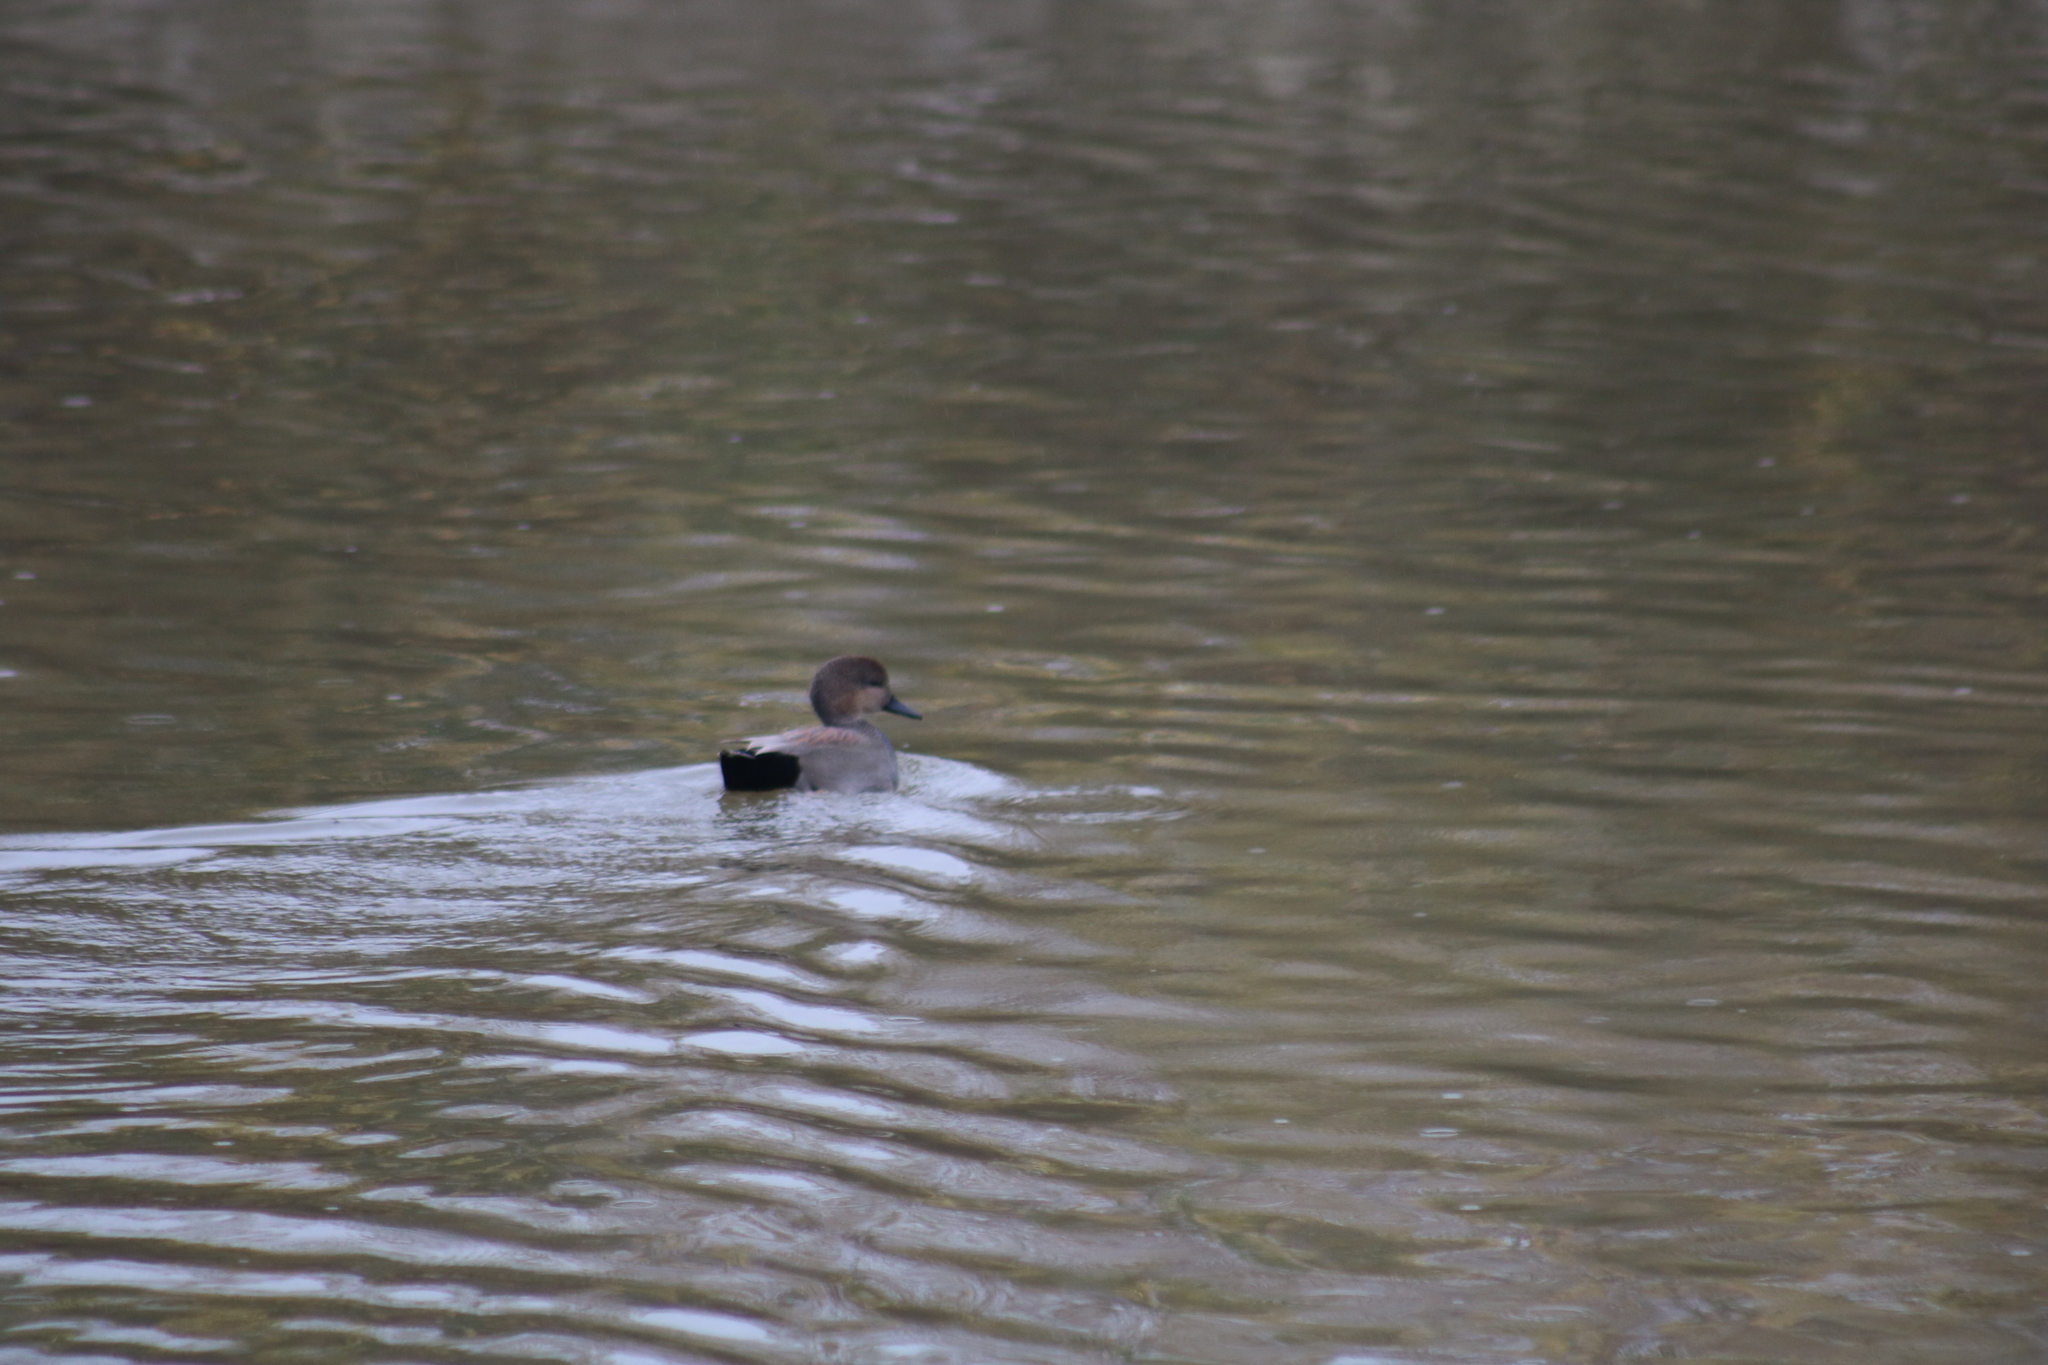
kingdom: Animalia
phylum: Chordata
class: Aves
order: Anseriformes
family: Anatidae
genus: Mareca
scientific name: Mareca strepera
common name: Gadwall
